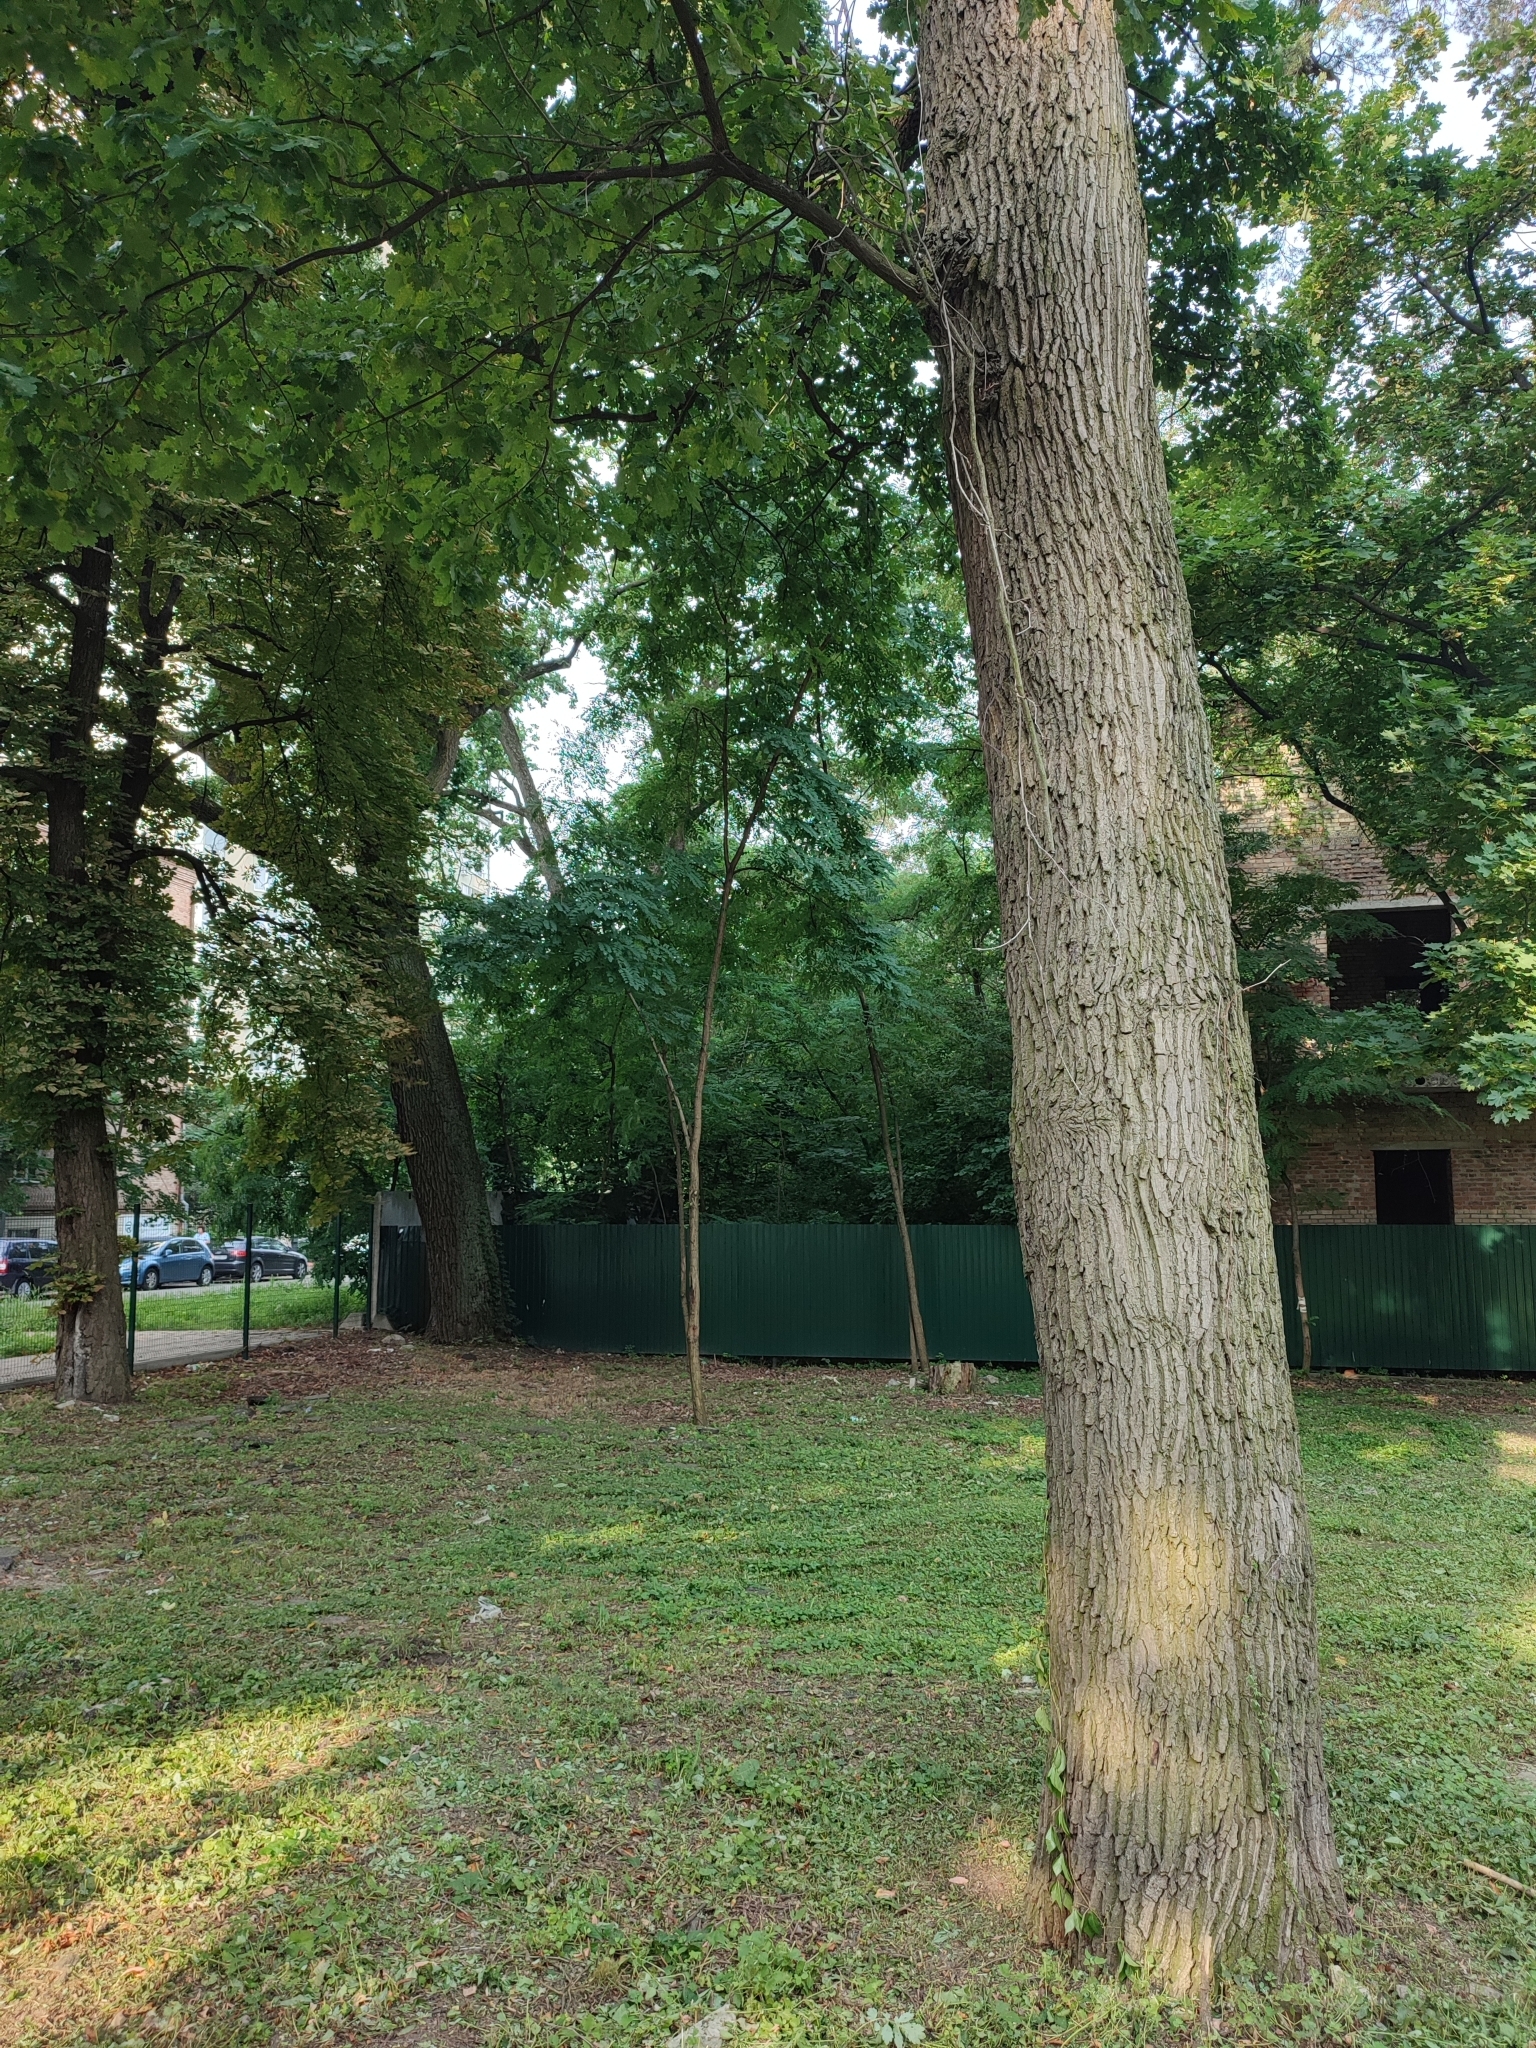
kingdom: Plantae
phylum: Tracheophyta
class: Magnoliopsida
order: Fagales
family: Fagaceae
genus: Quercus
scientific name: Quercus robur
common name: Pedunculate oak
